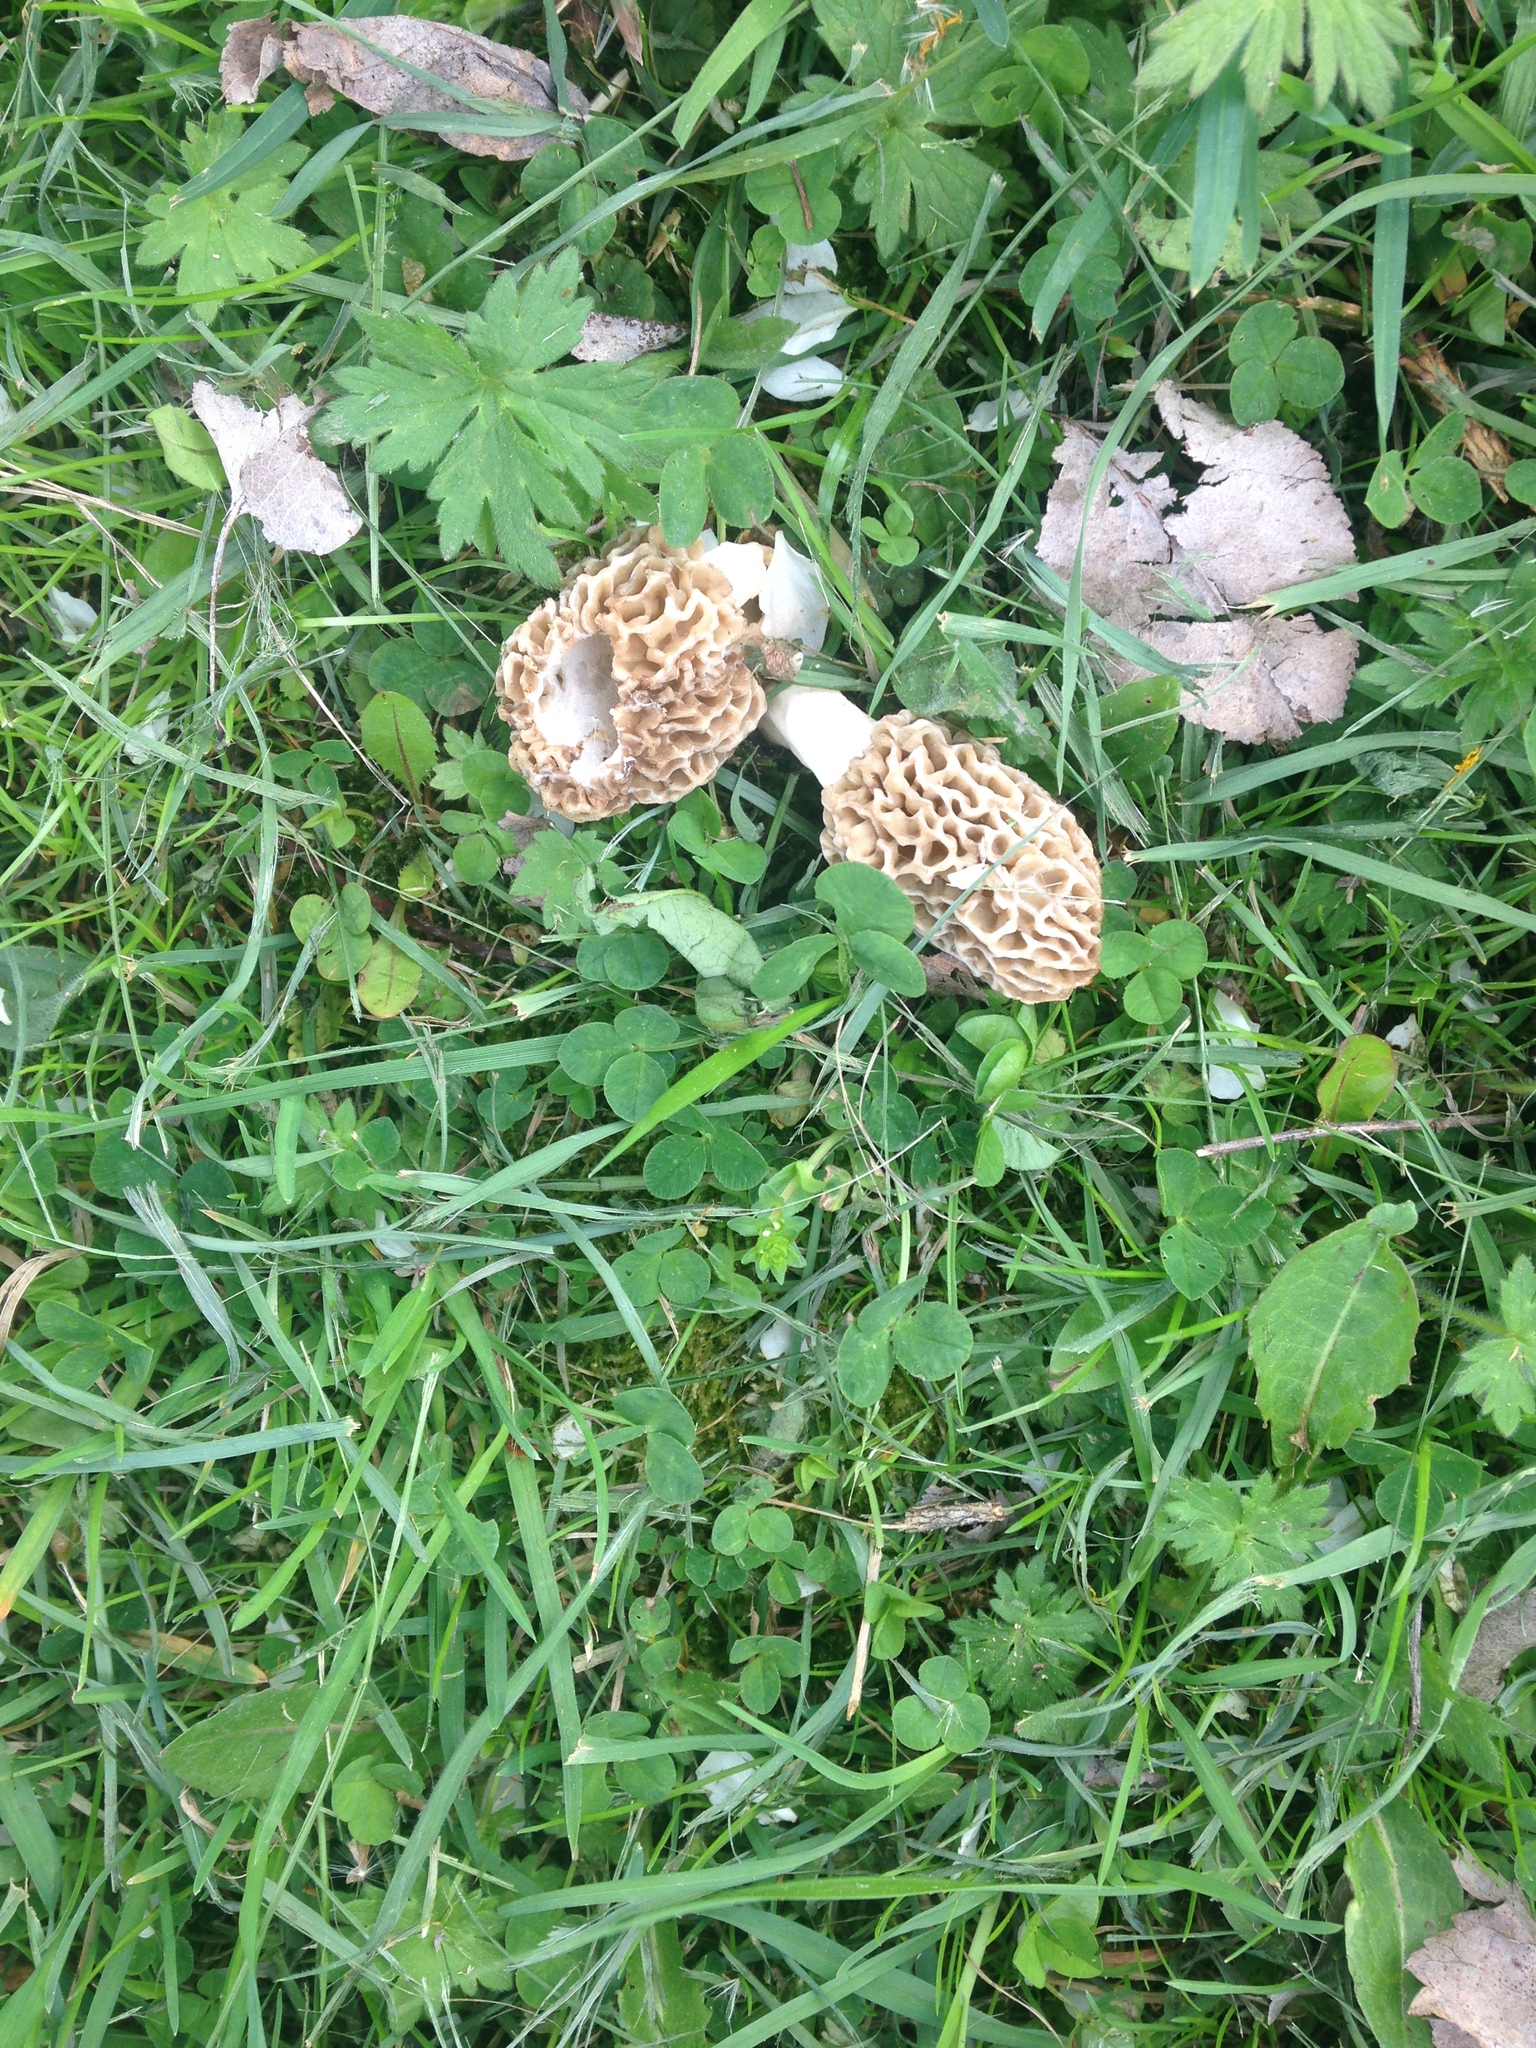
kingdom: Fungi
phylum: Ascomycota
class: Pezizomycetes
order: Pezizales
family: Morchellaceae
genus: Morchella
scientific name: Morchella americana
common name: White morel
